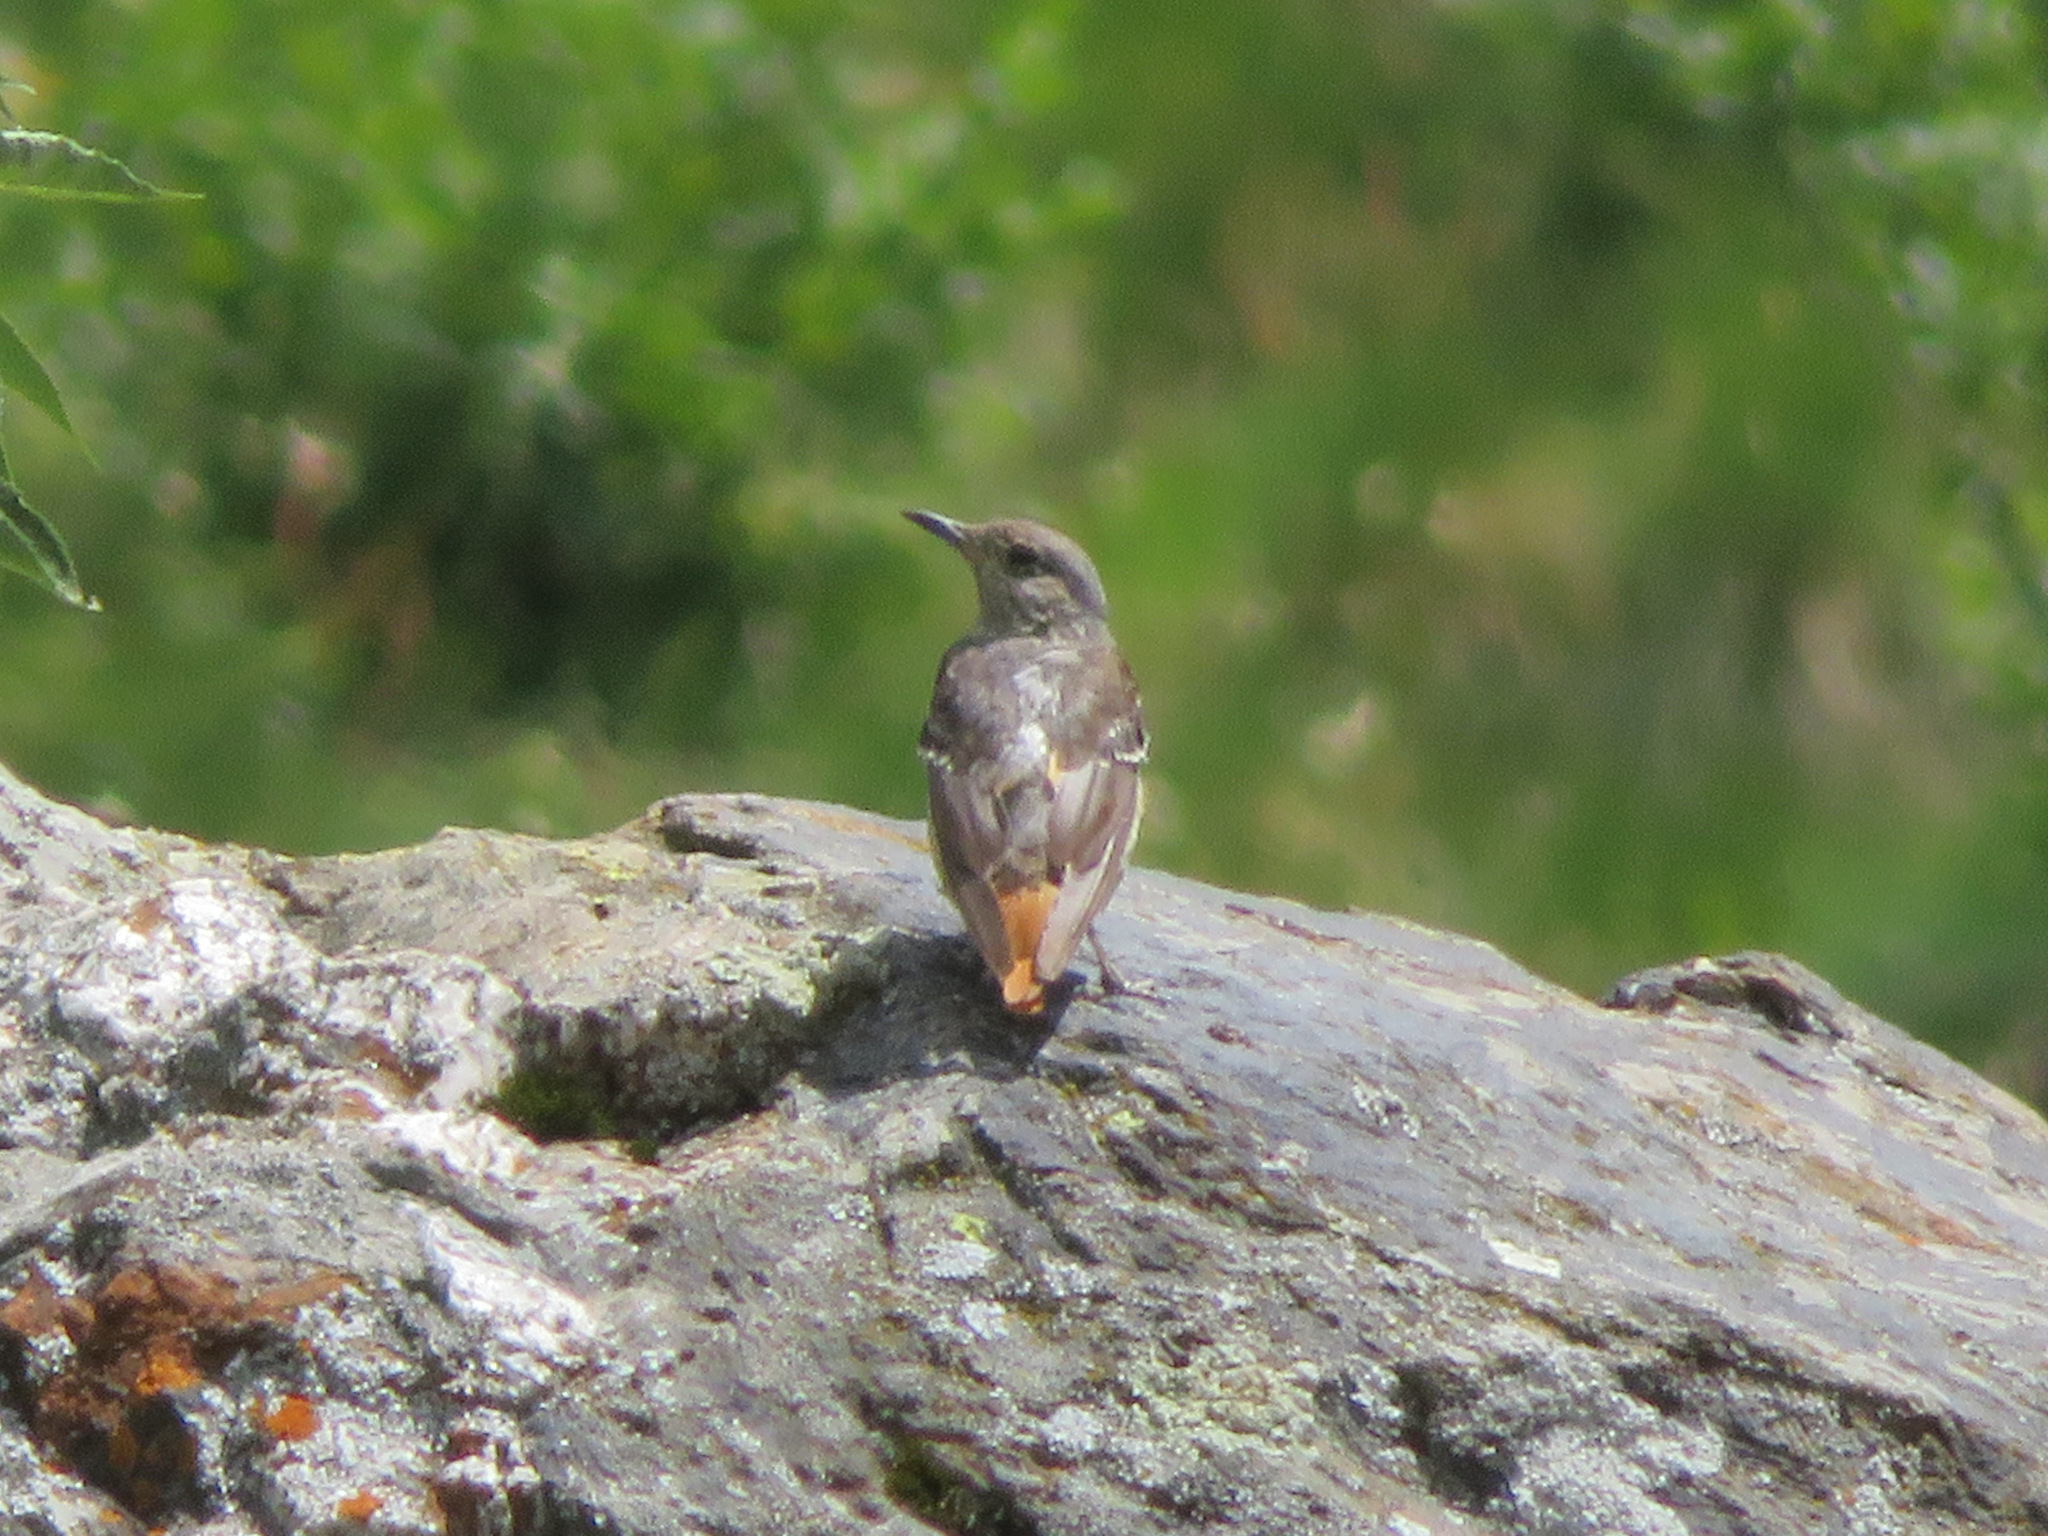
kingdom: Animalia
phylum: Chordata
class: Aves
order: Passeriformes
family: Muscicapidae
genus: Monticola
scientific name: Monticola saxatilis
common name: Rufous-tailed rock thrush
